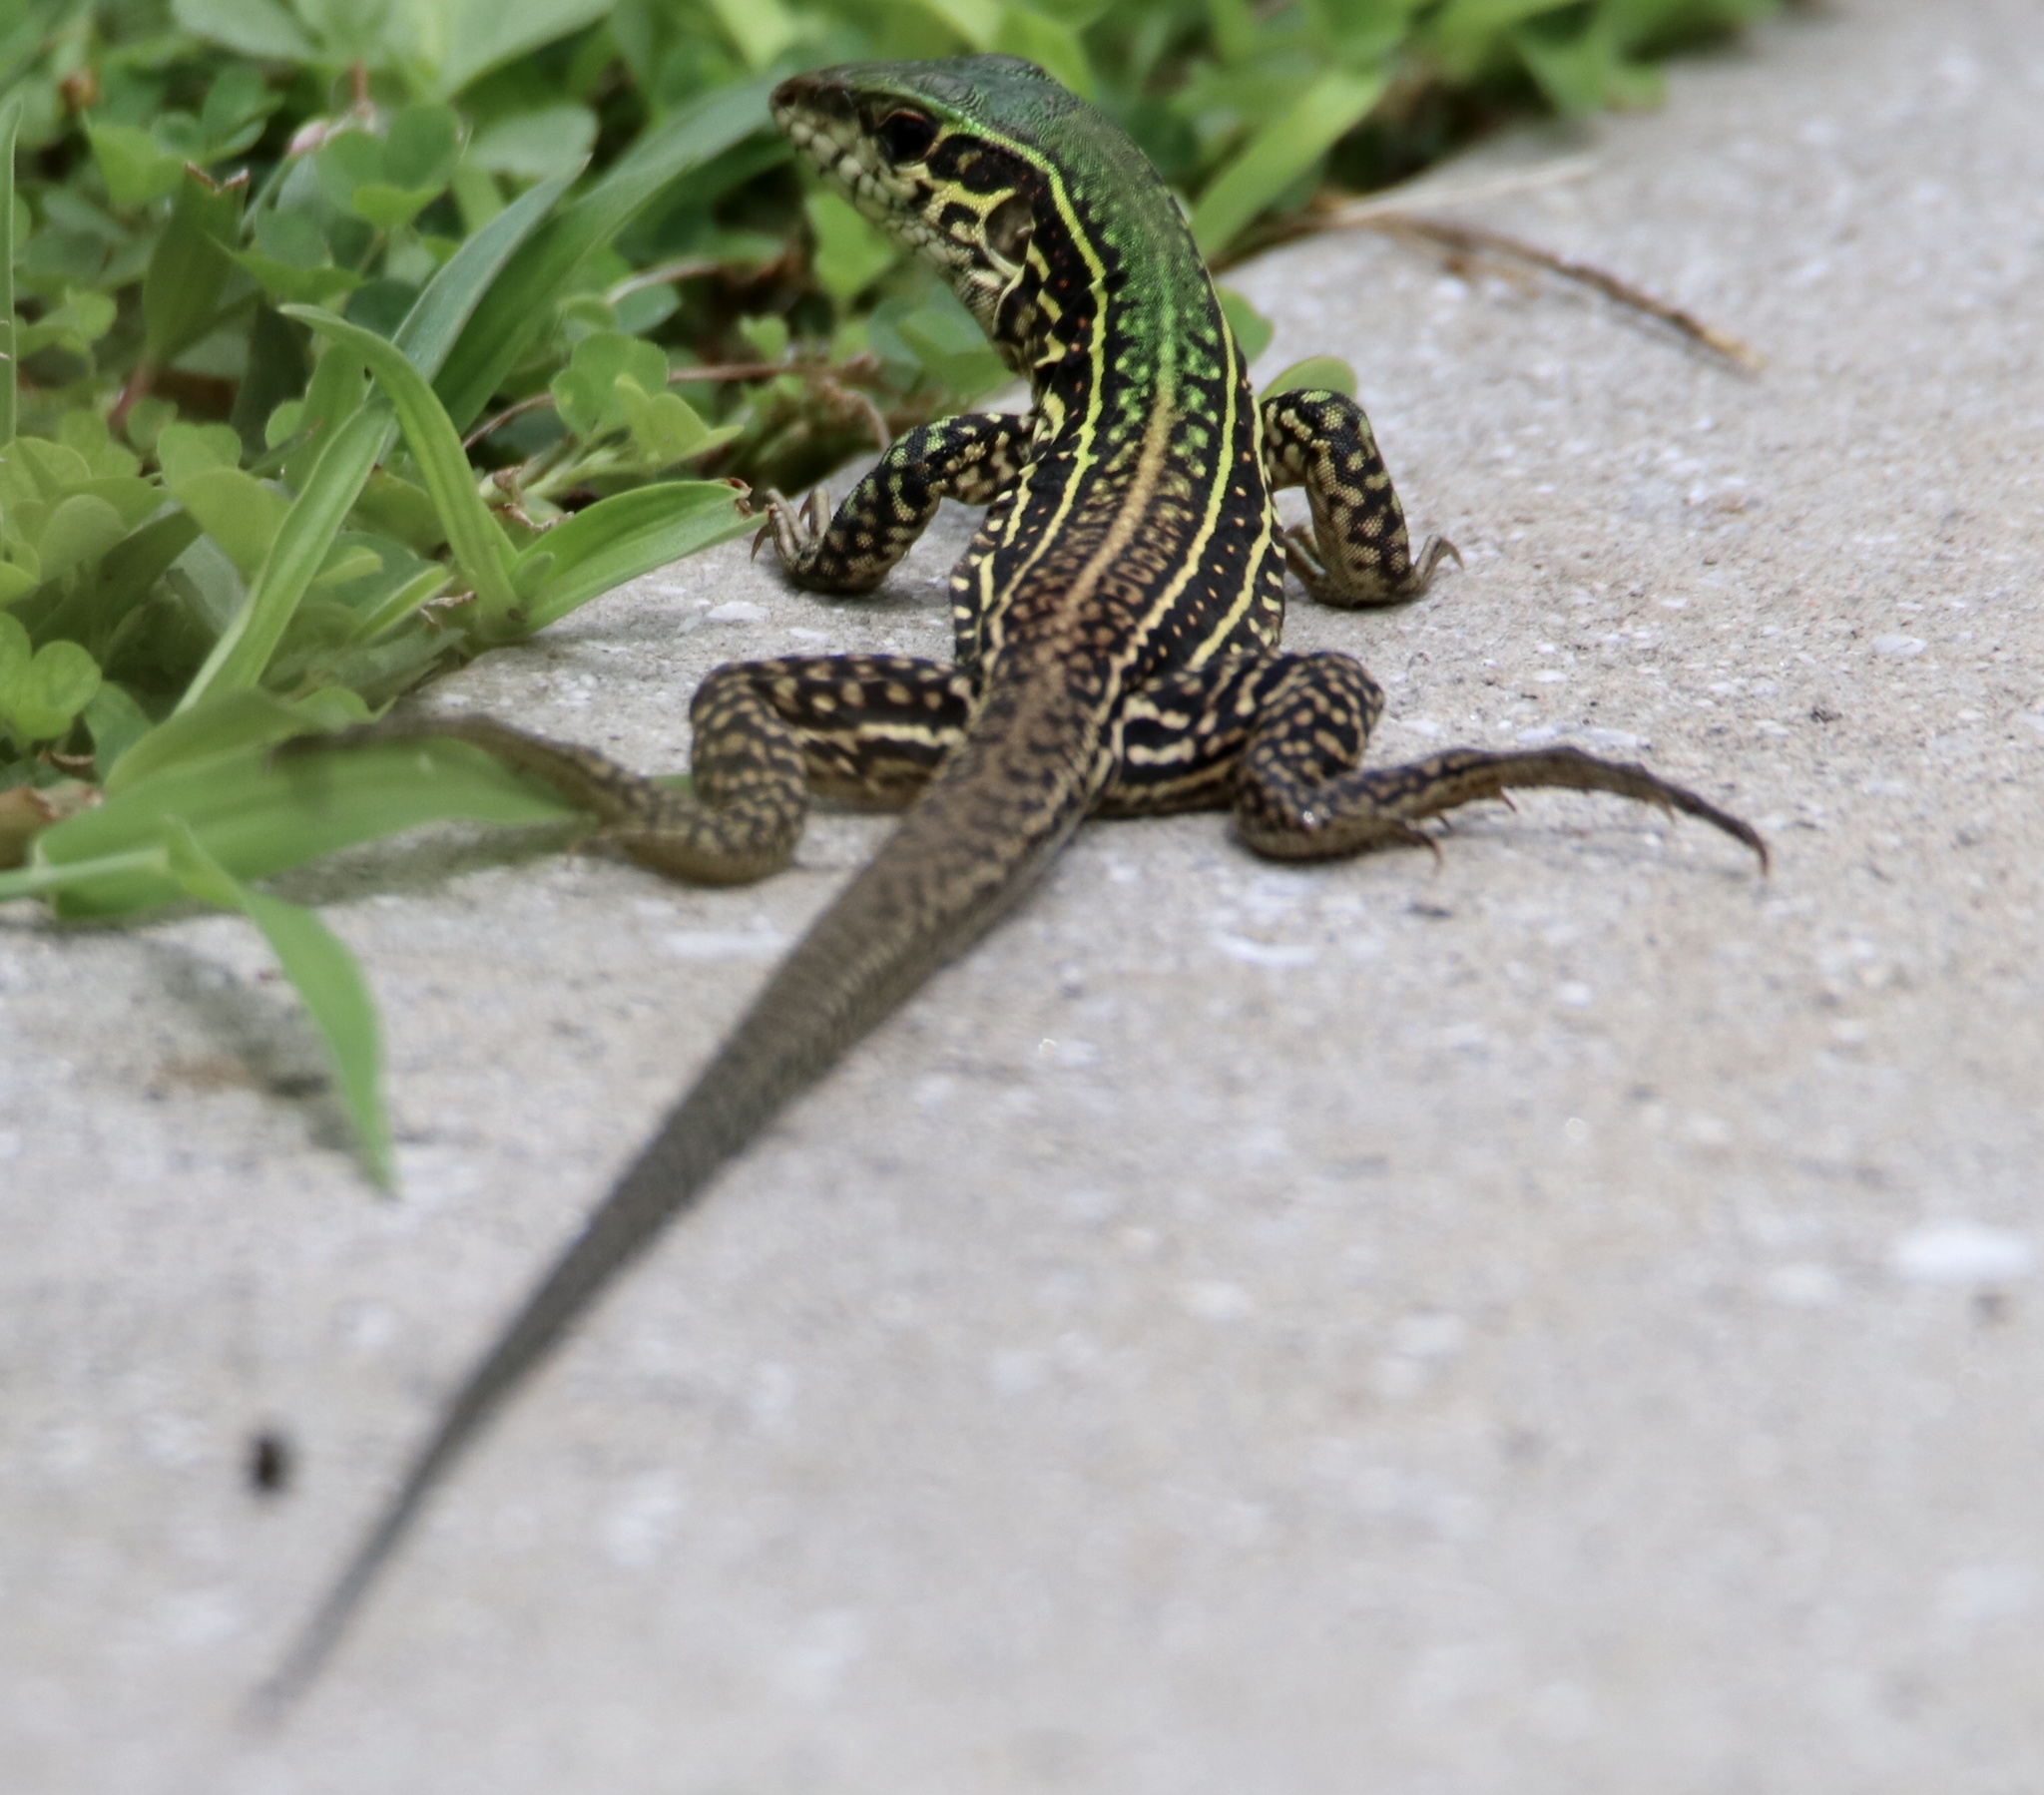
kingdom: Animalia
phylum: Chordata
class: Squamata
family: Teiidae
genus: Ameiva
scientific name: Ameiva praesignis
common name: Giant ameiva
